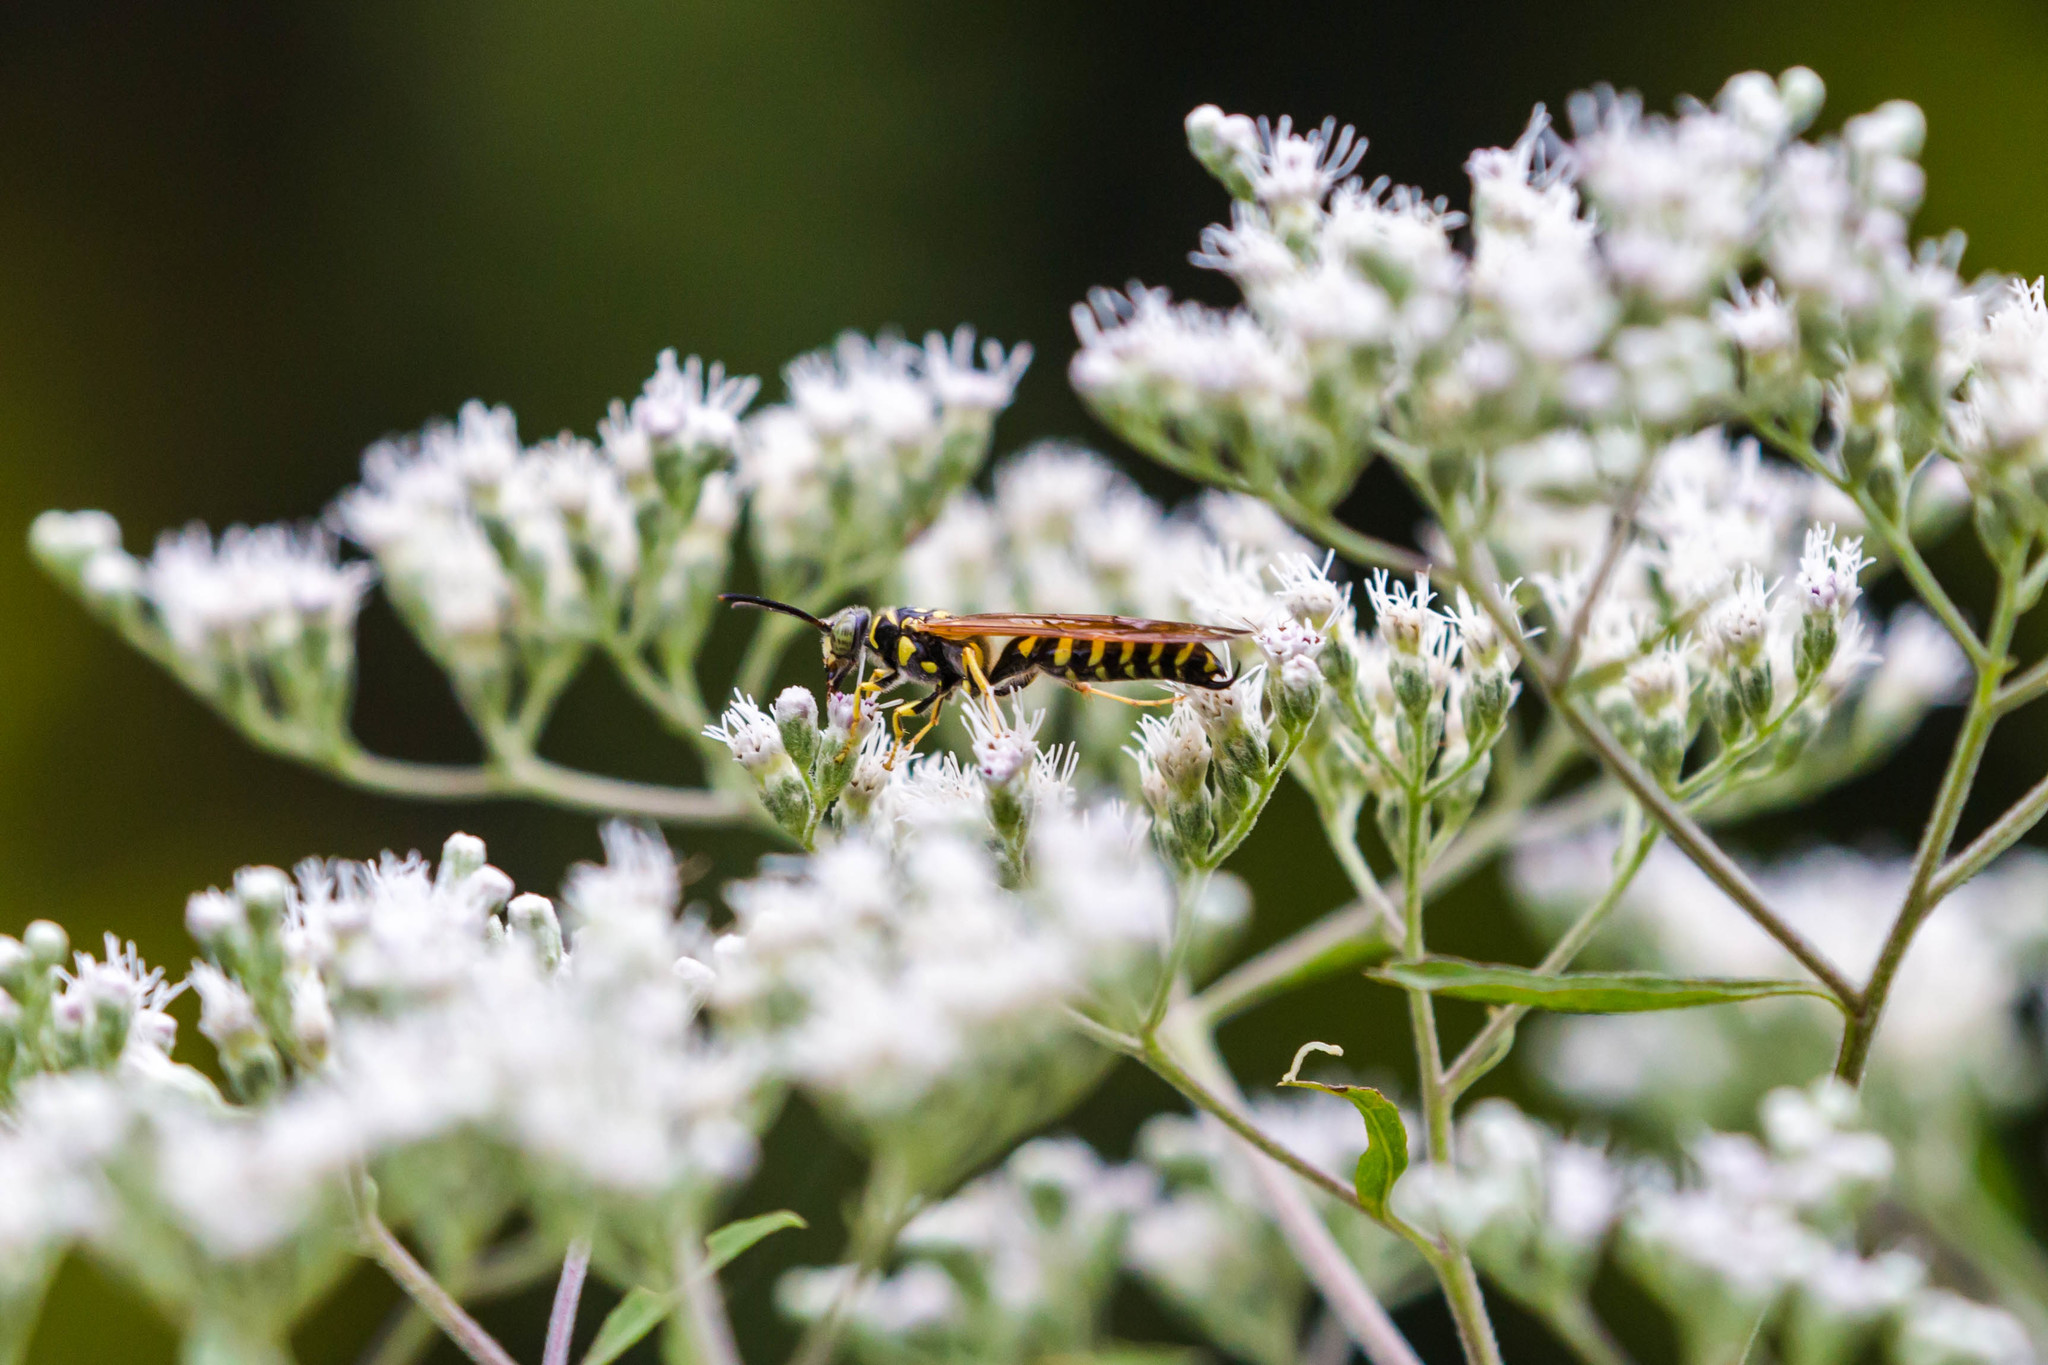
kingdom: Animalia
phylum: Arthropoda
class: Insecta
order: Hymenoptera
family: Tiphiidae
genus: Myzinum
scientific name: Myzinum quinquecinctum
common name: Five-banded thynnid wasp
